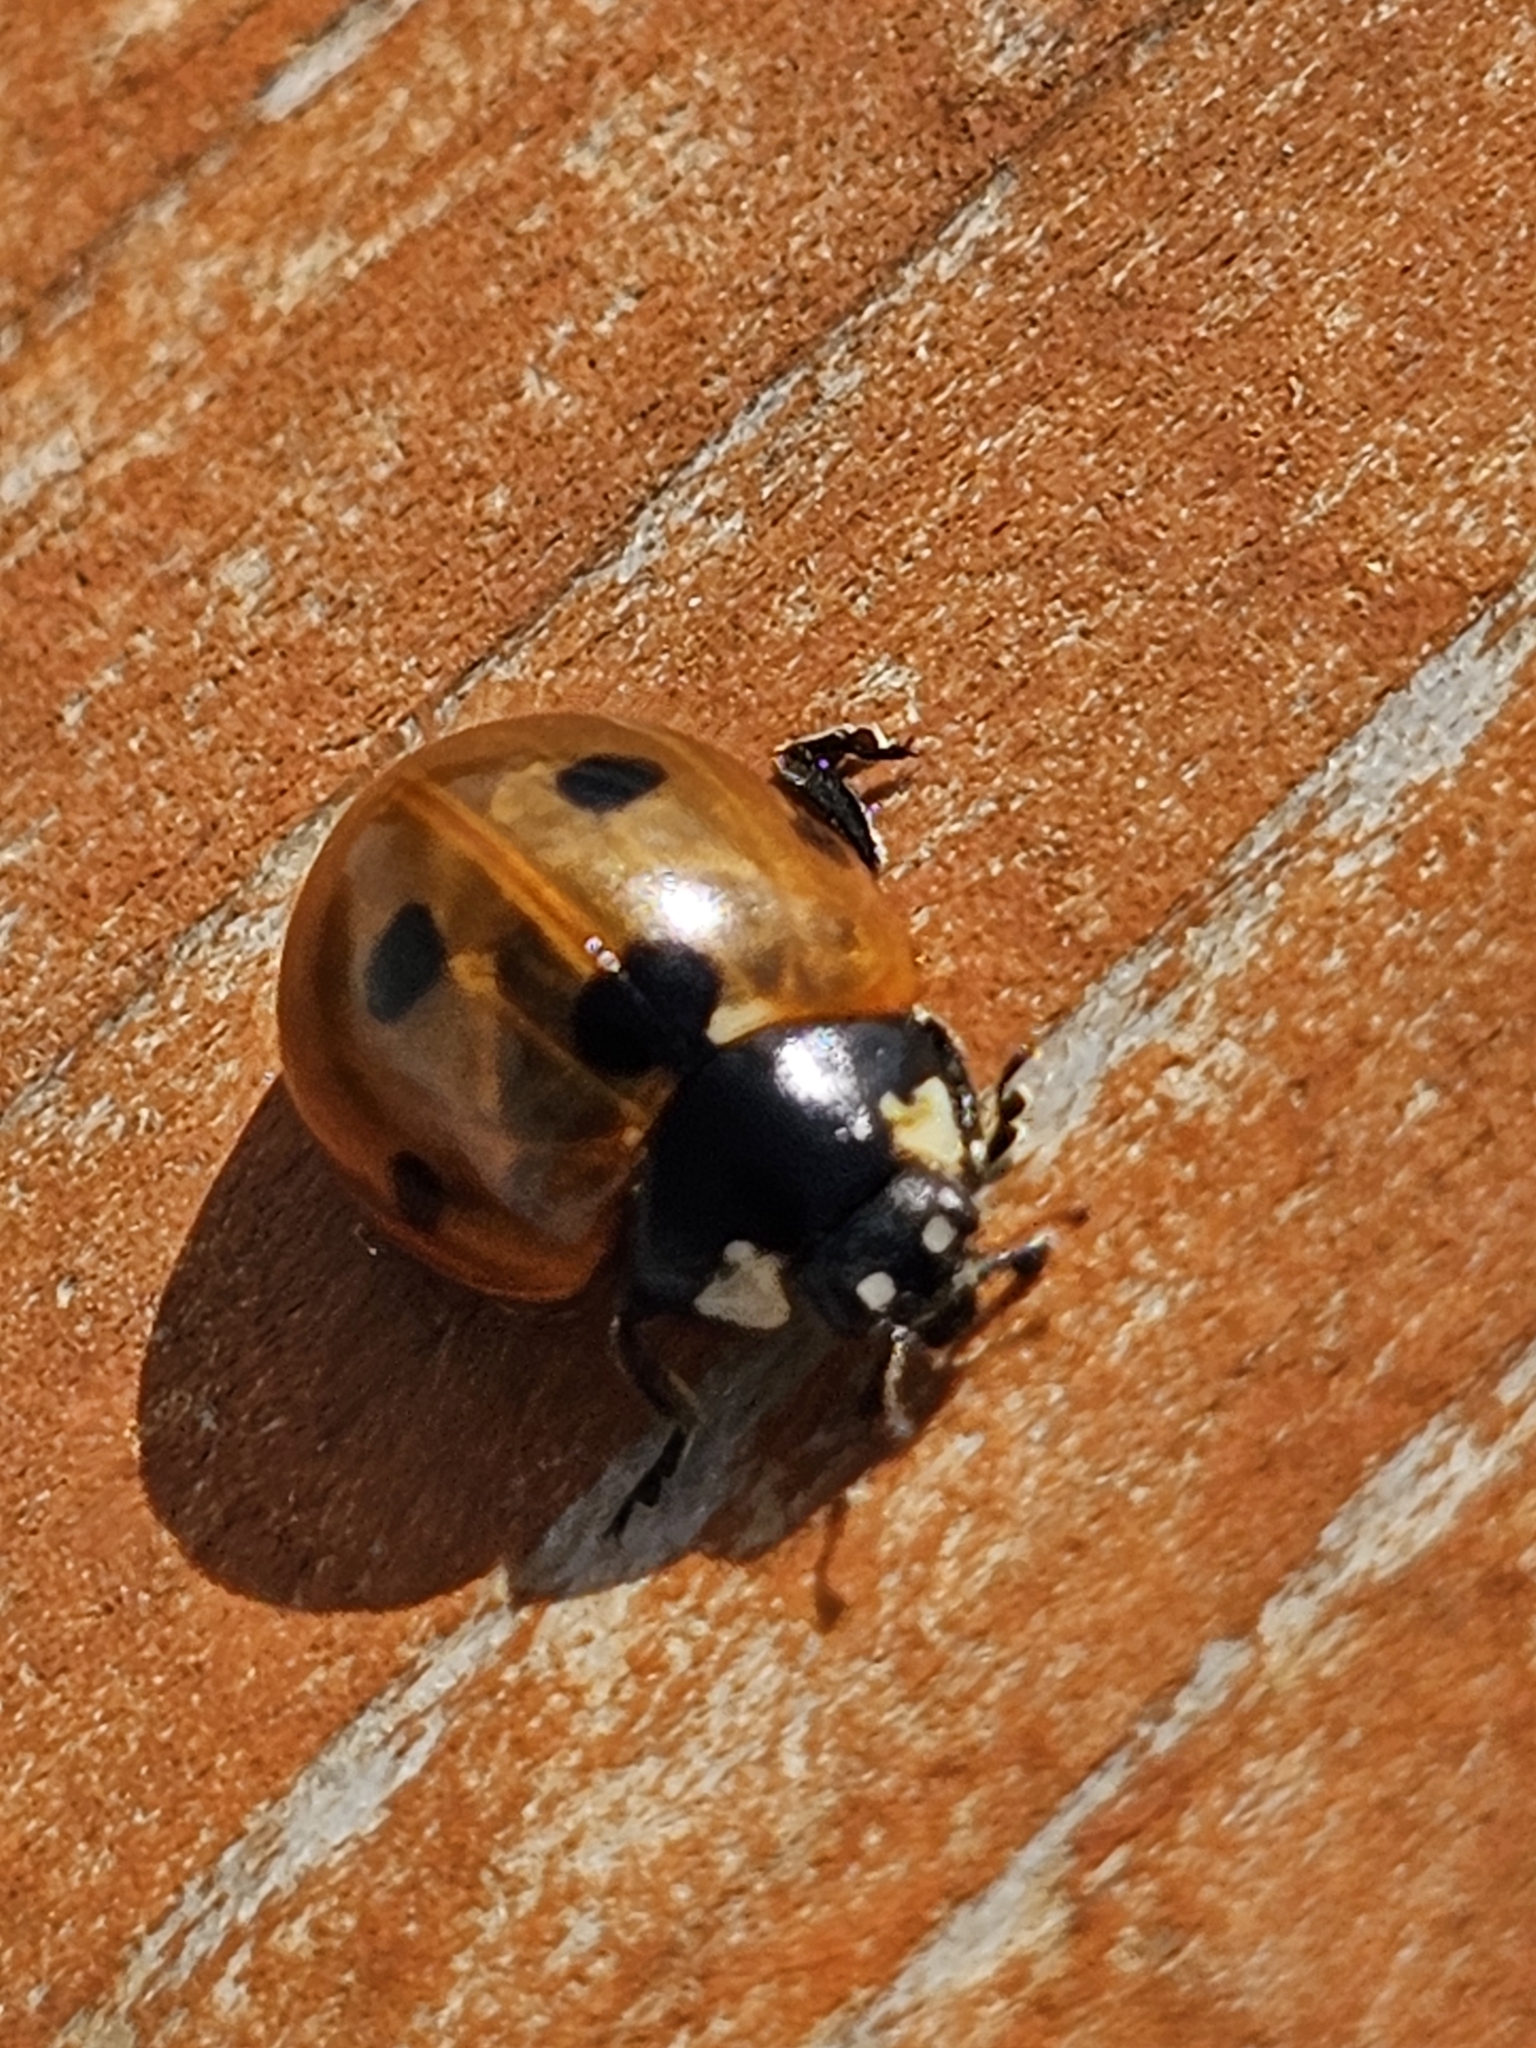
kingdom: Animalia
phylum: Arthropoda
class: Insecta
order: Coleoptera
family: Coccinellidae
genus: Coccinella
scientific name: Coccinella septempunctata
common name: Sevenspotted lady beetle
